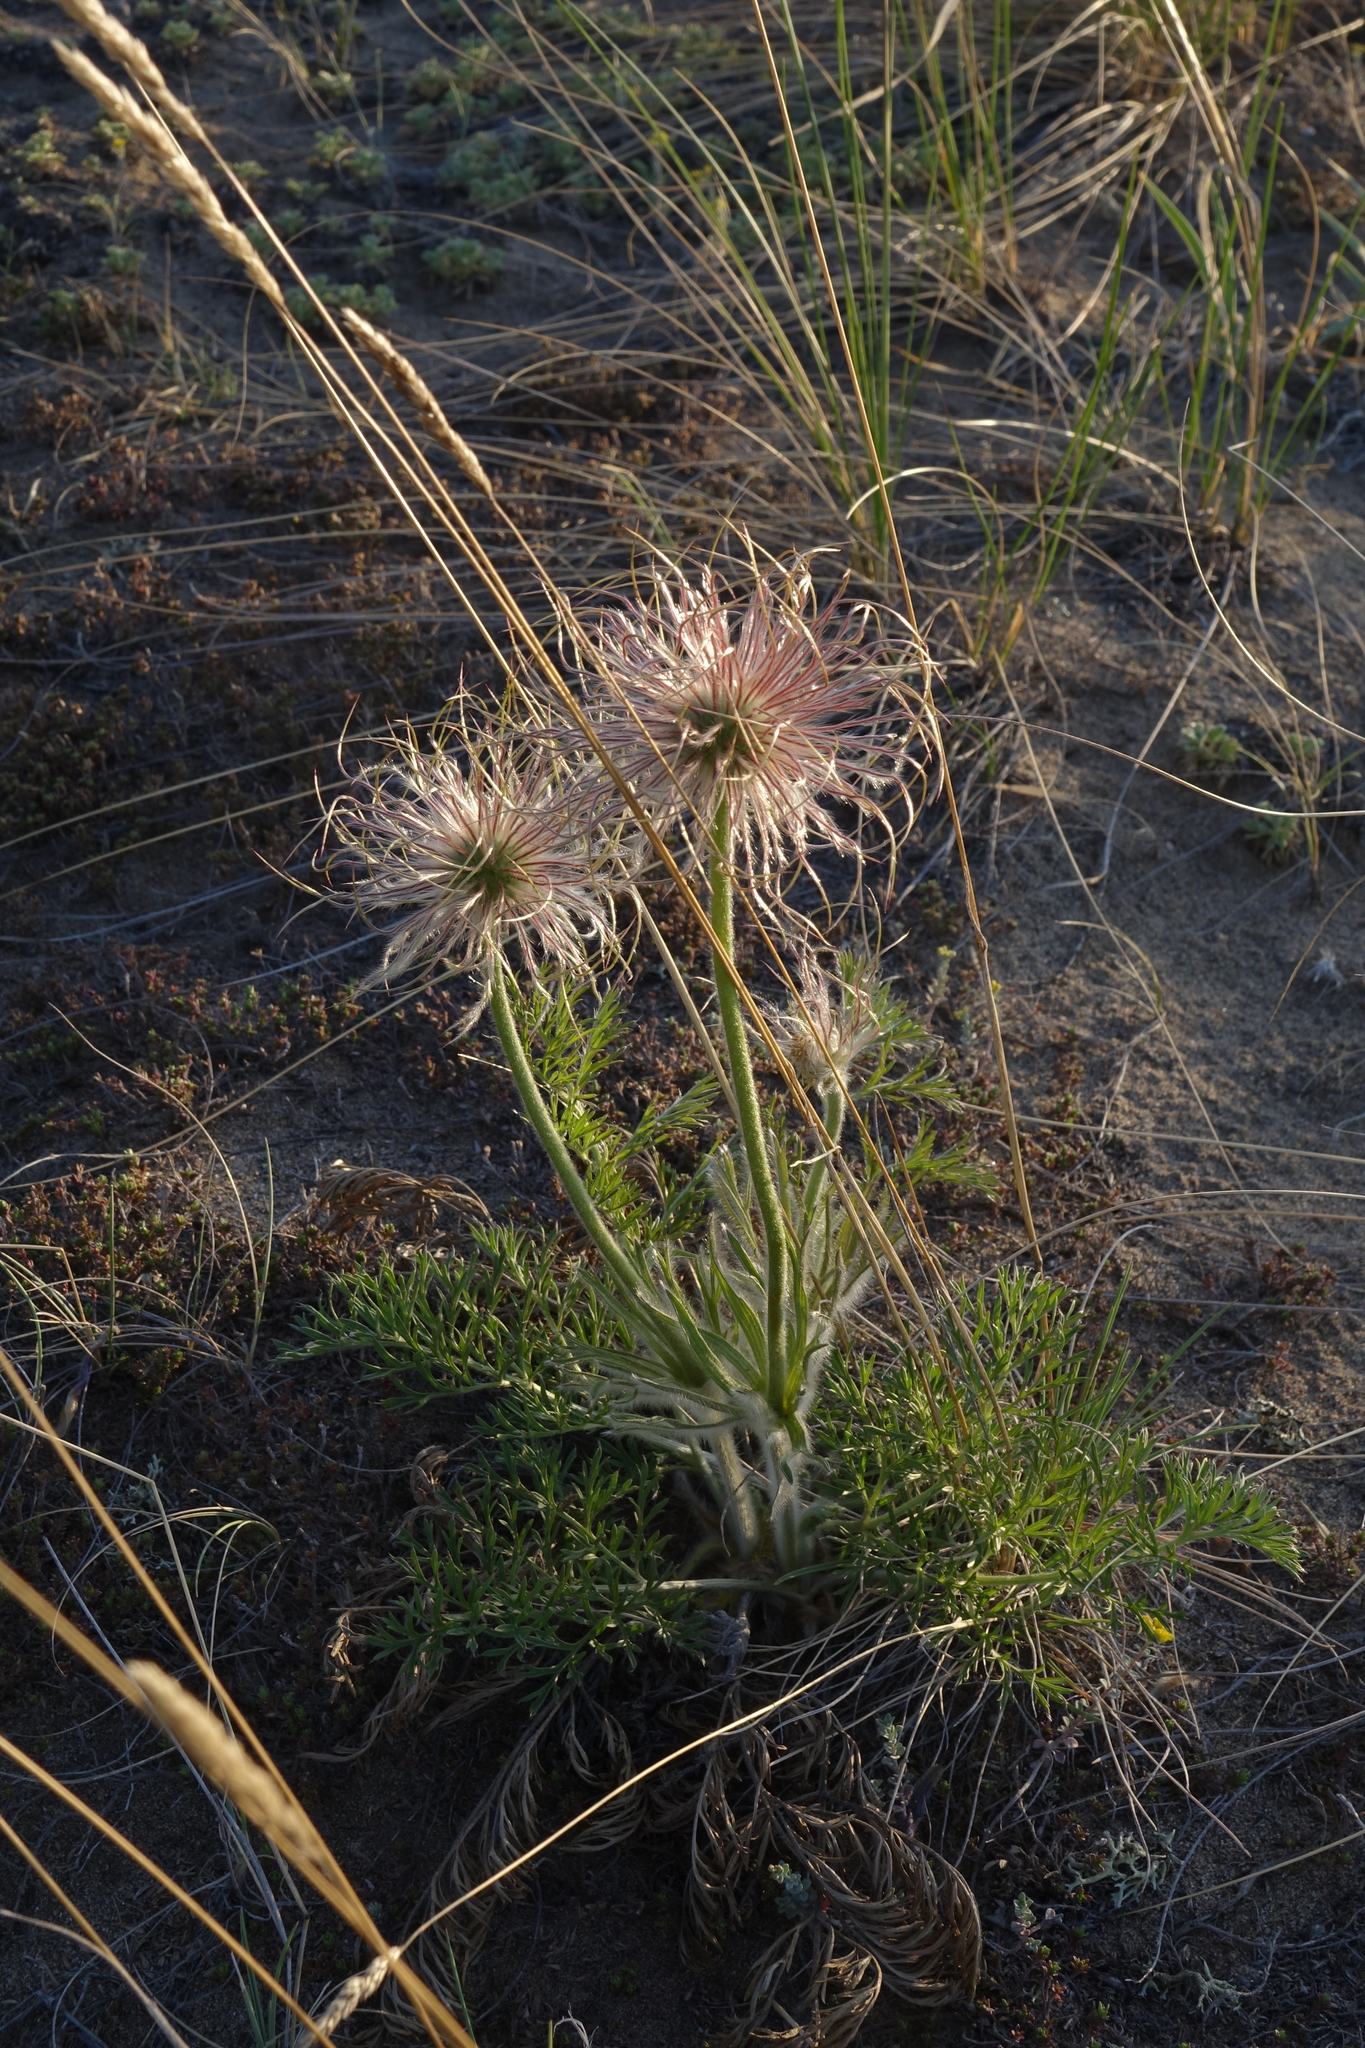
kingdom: Plantae
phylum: Tracheophyta
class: Magnoliopsida
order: Ranunculales
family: Ranunculaceae
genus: Pulsatilla
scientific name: Pulsatilla turczaninovii
